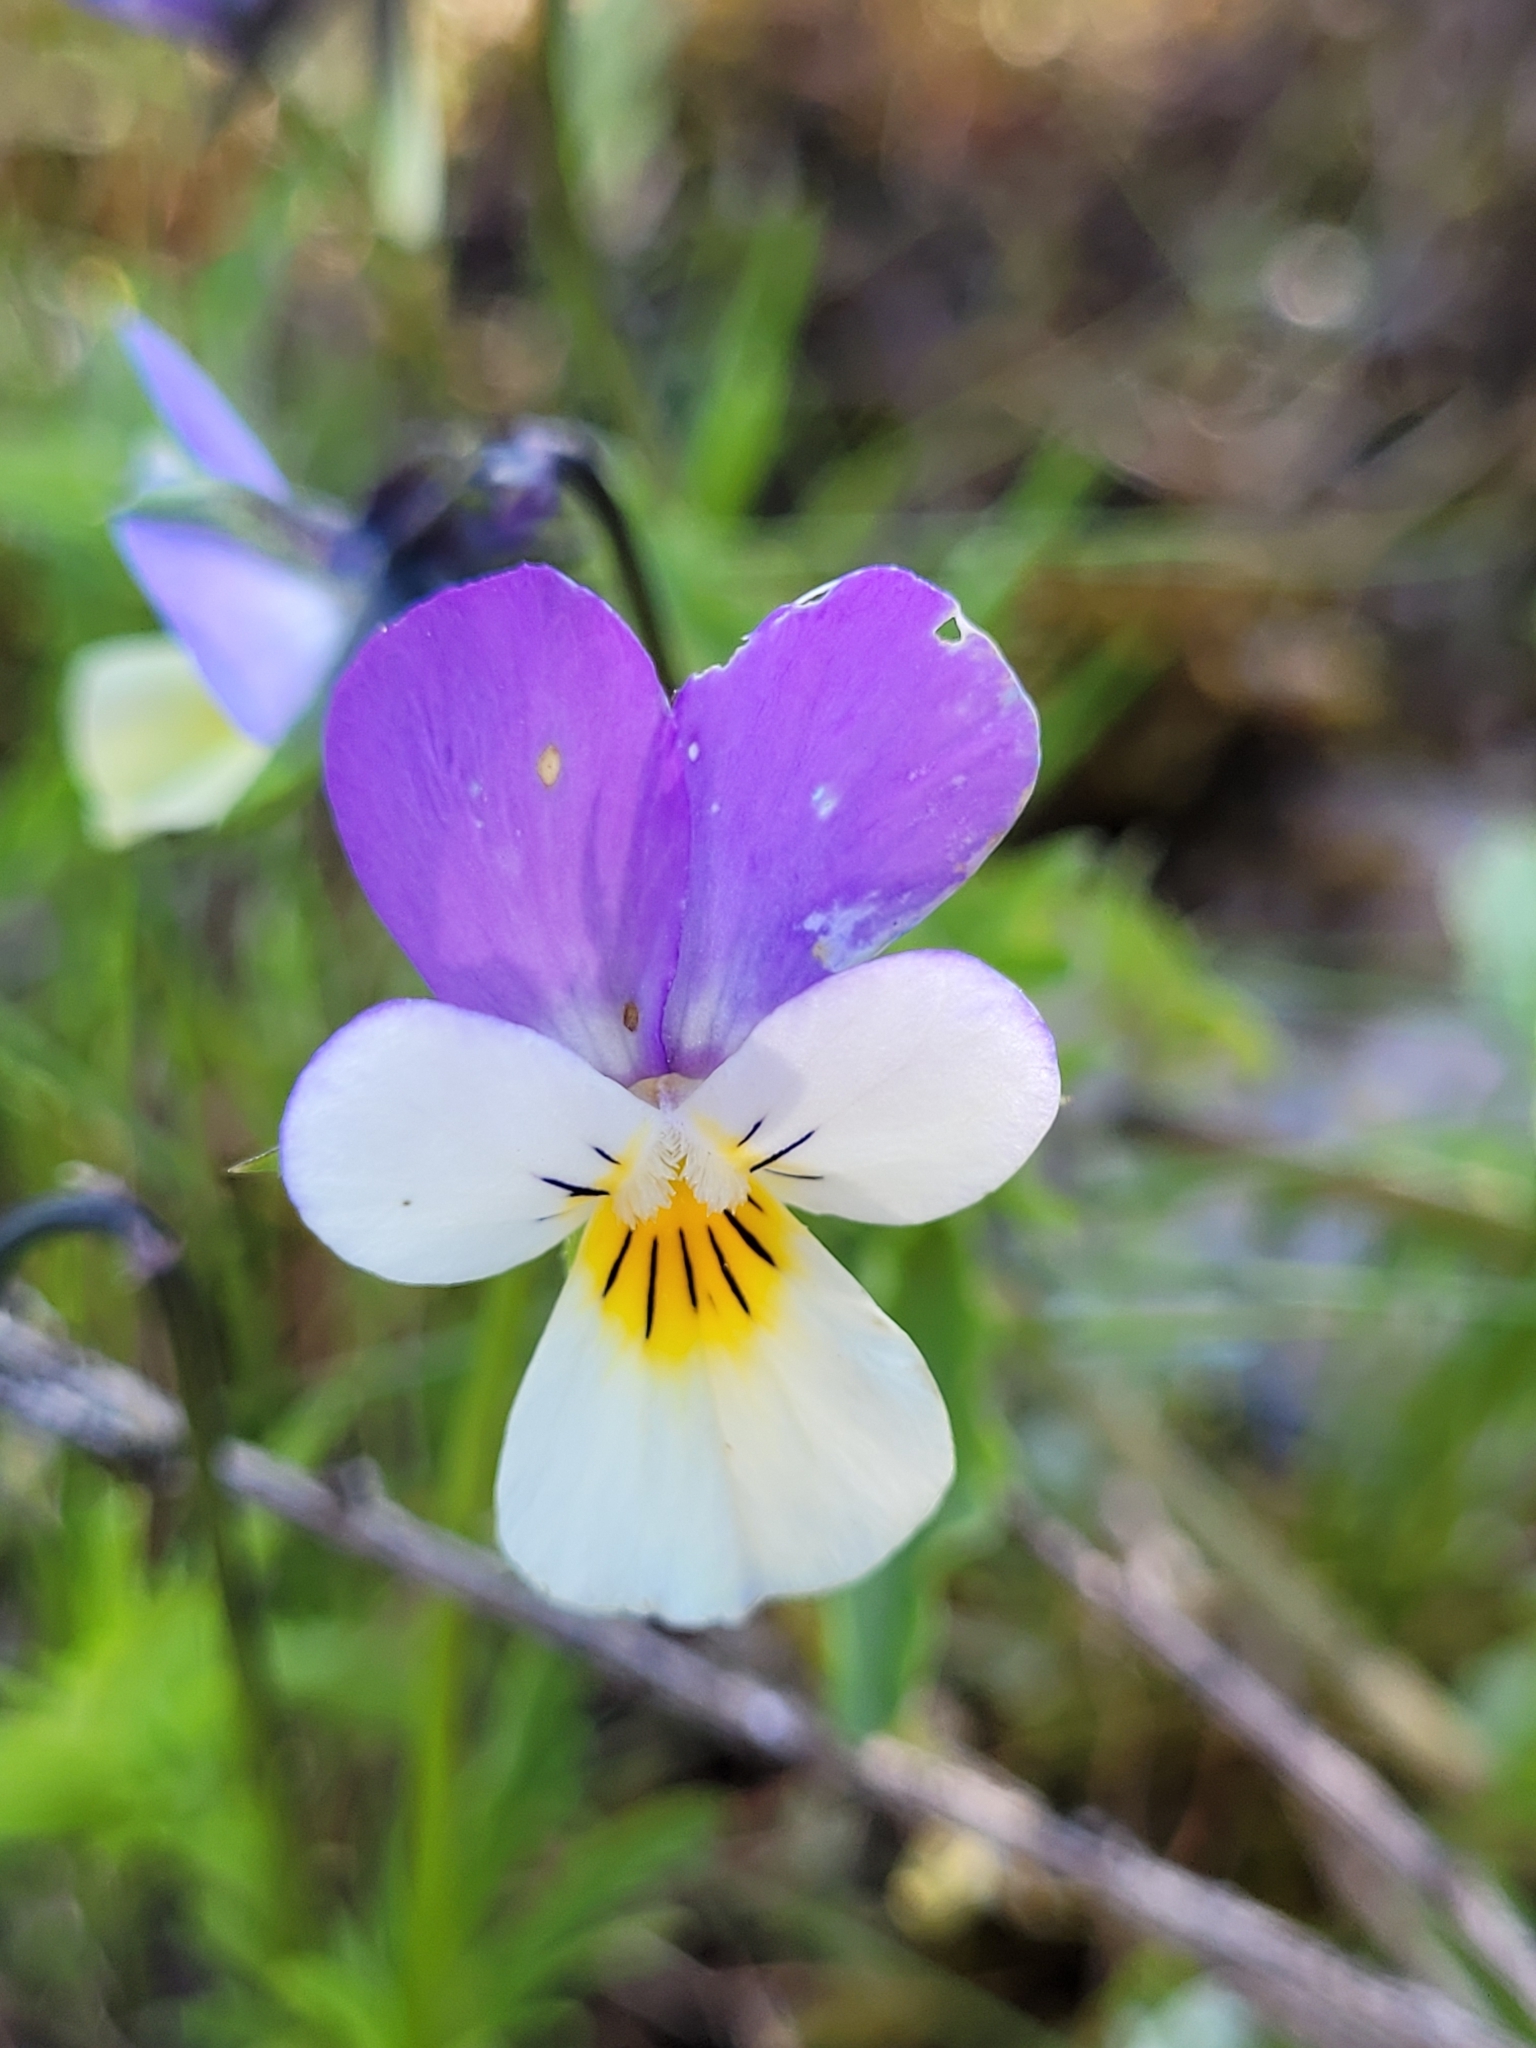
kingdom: Plantae
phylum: Tracheophyta
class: Magnoliopsida
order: Malpighiales
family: Violaceae
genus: Viola
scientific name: Viola tricolor
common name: Pansy
